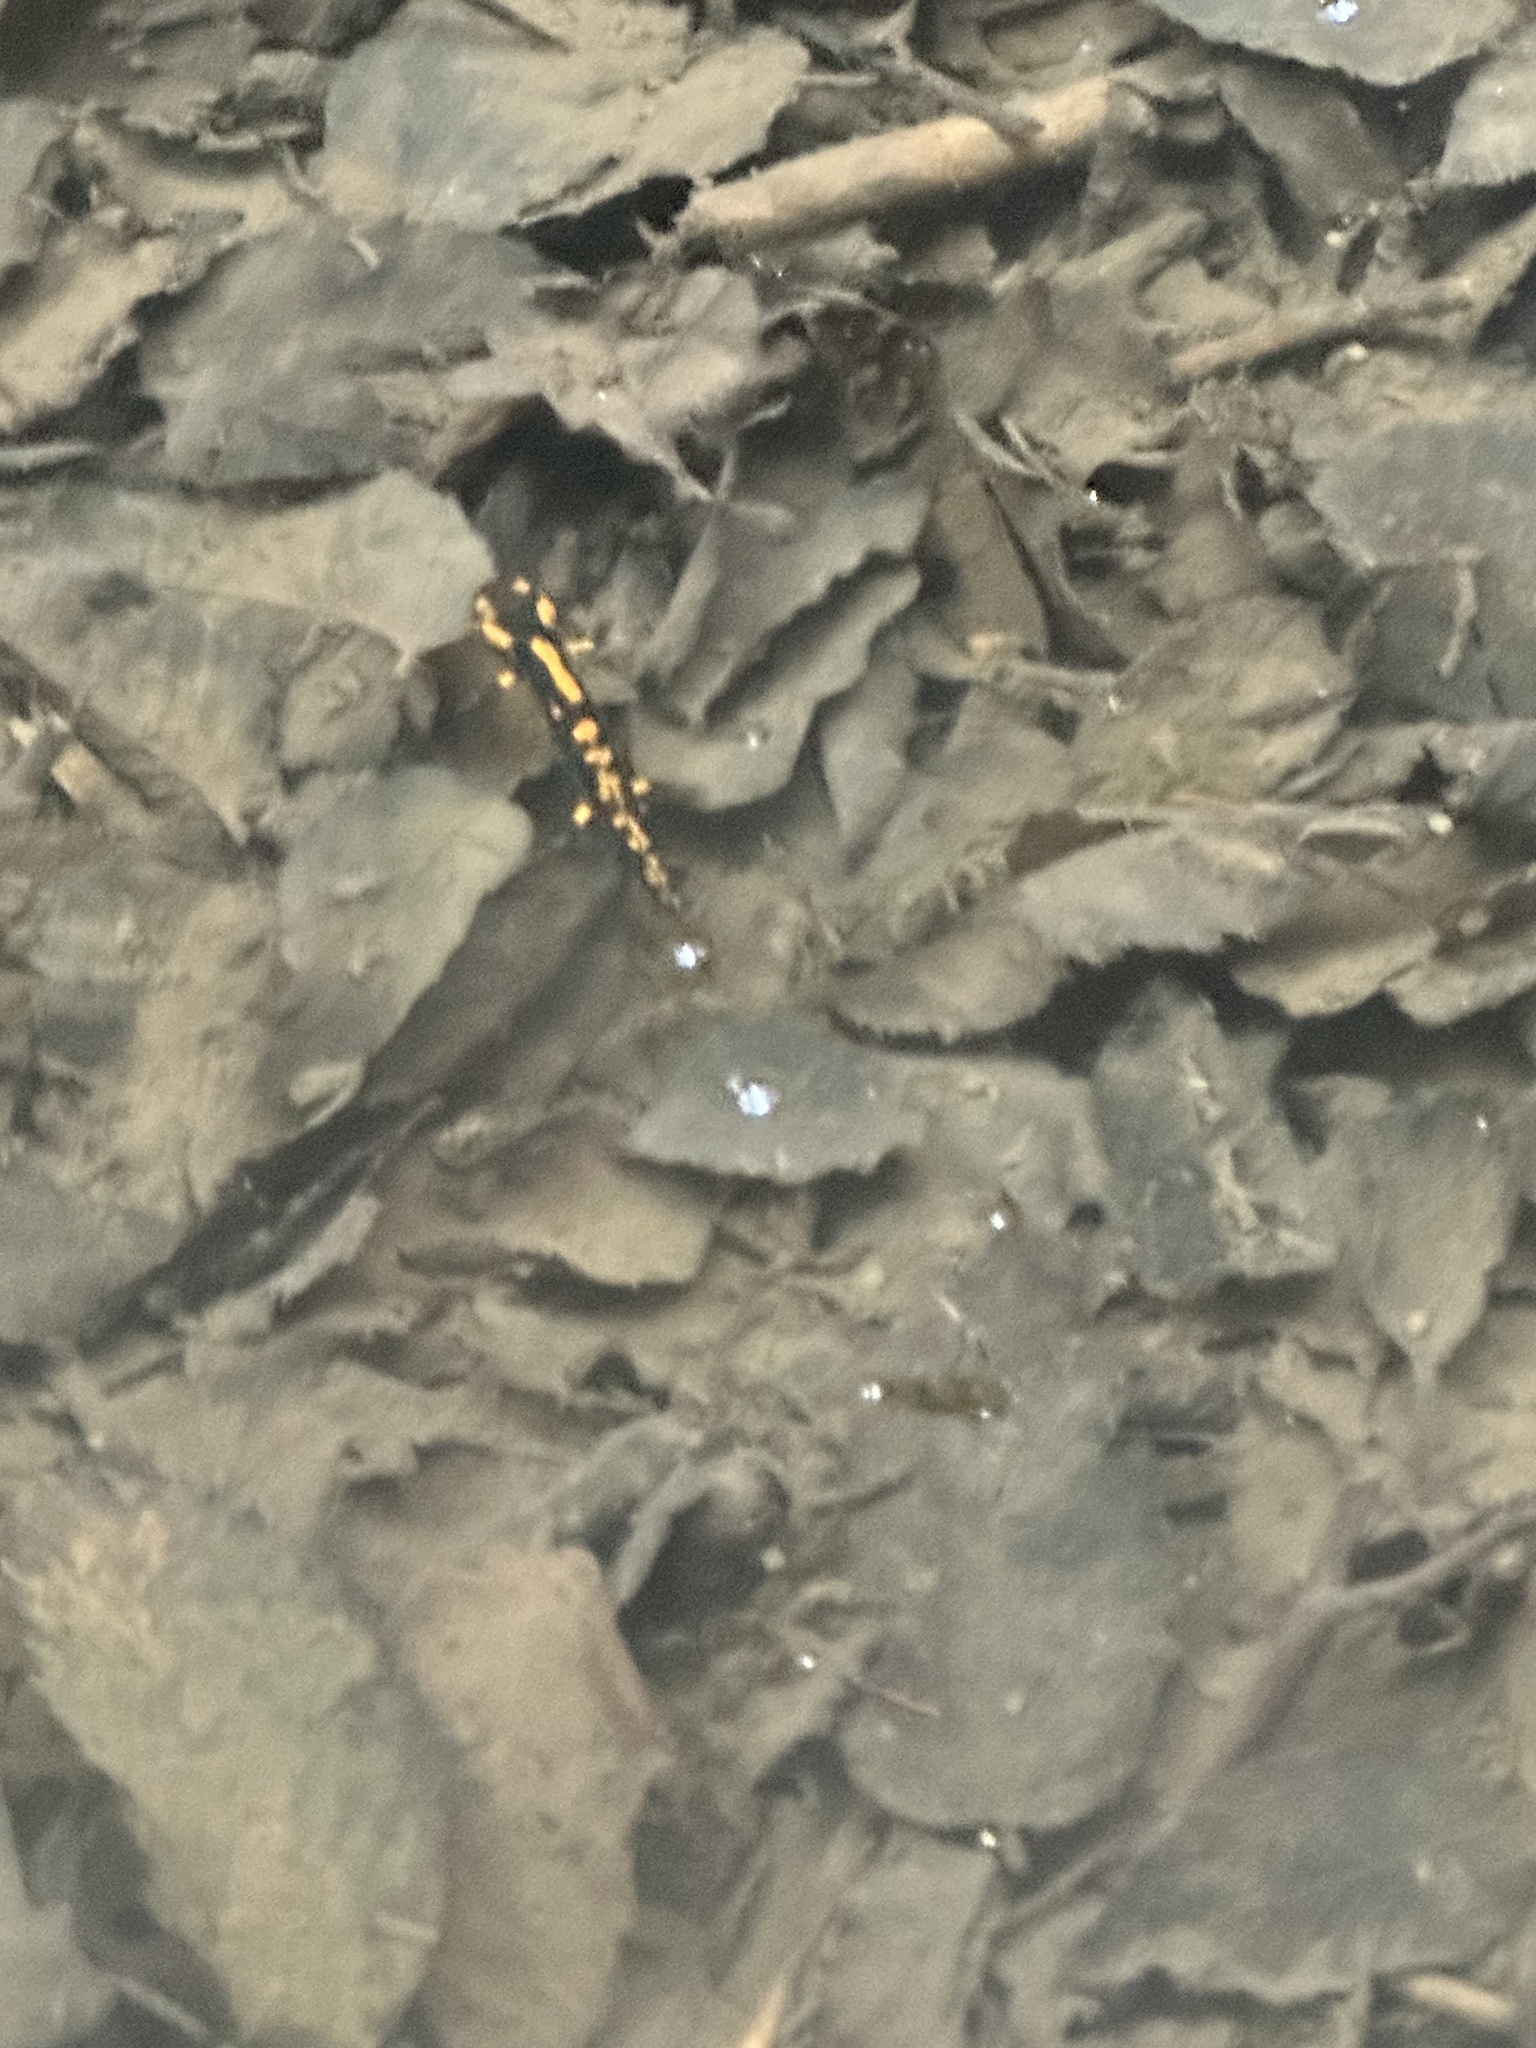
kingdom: Animalia
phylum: Chordata
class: Amphibia
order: Caudata
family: Salamandridae
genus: Salamandra
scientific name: Salamandra salamandra
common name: Fire salamander
